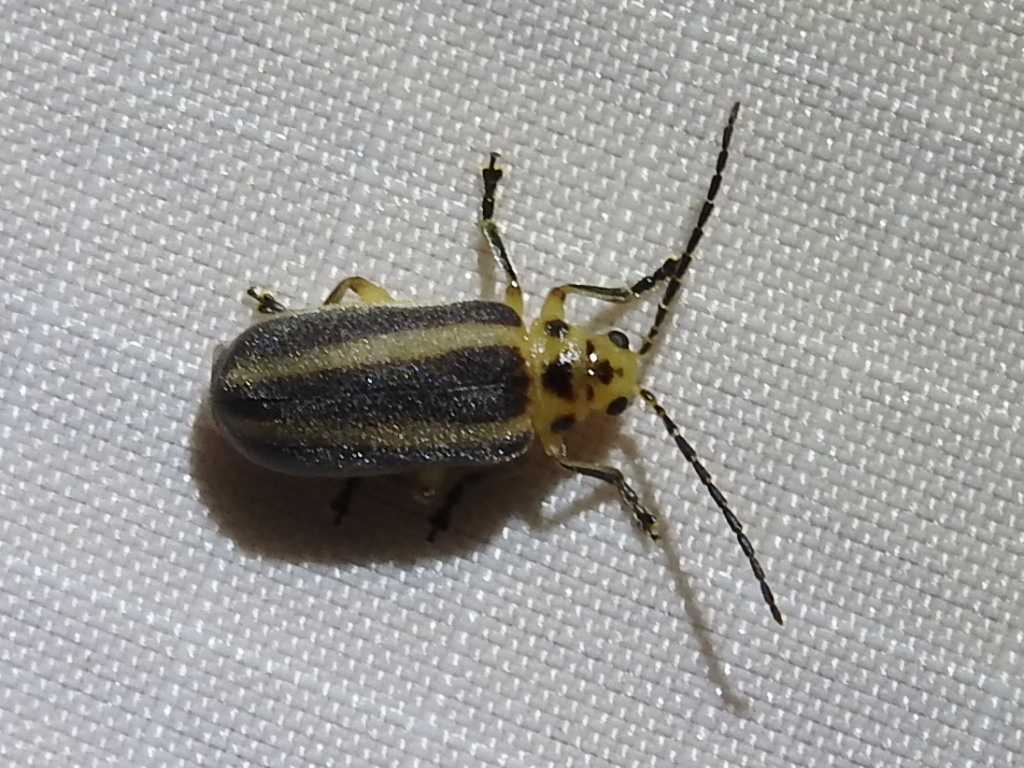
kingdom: Animalia
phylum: Arthropoda
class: Insecta
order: Coleoptera
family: Chrysomelidae
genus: Derospidea
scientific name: Derospidea brevicollis
